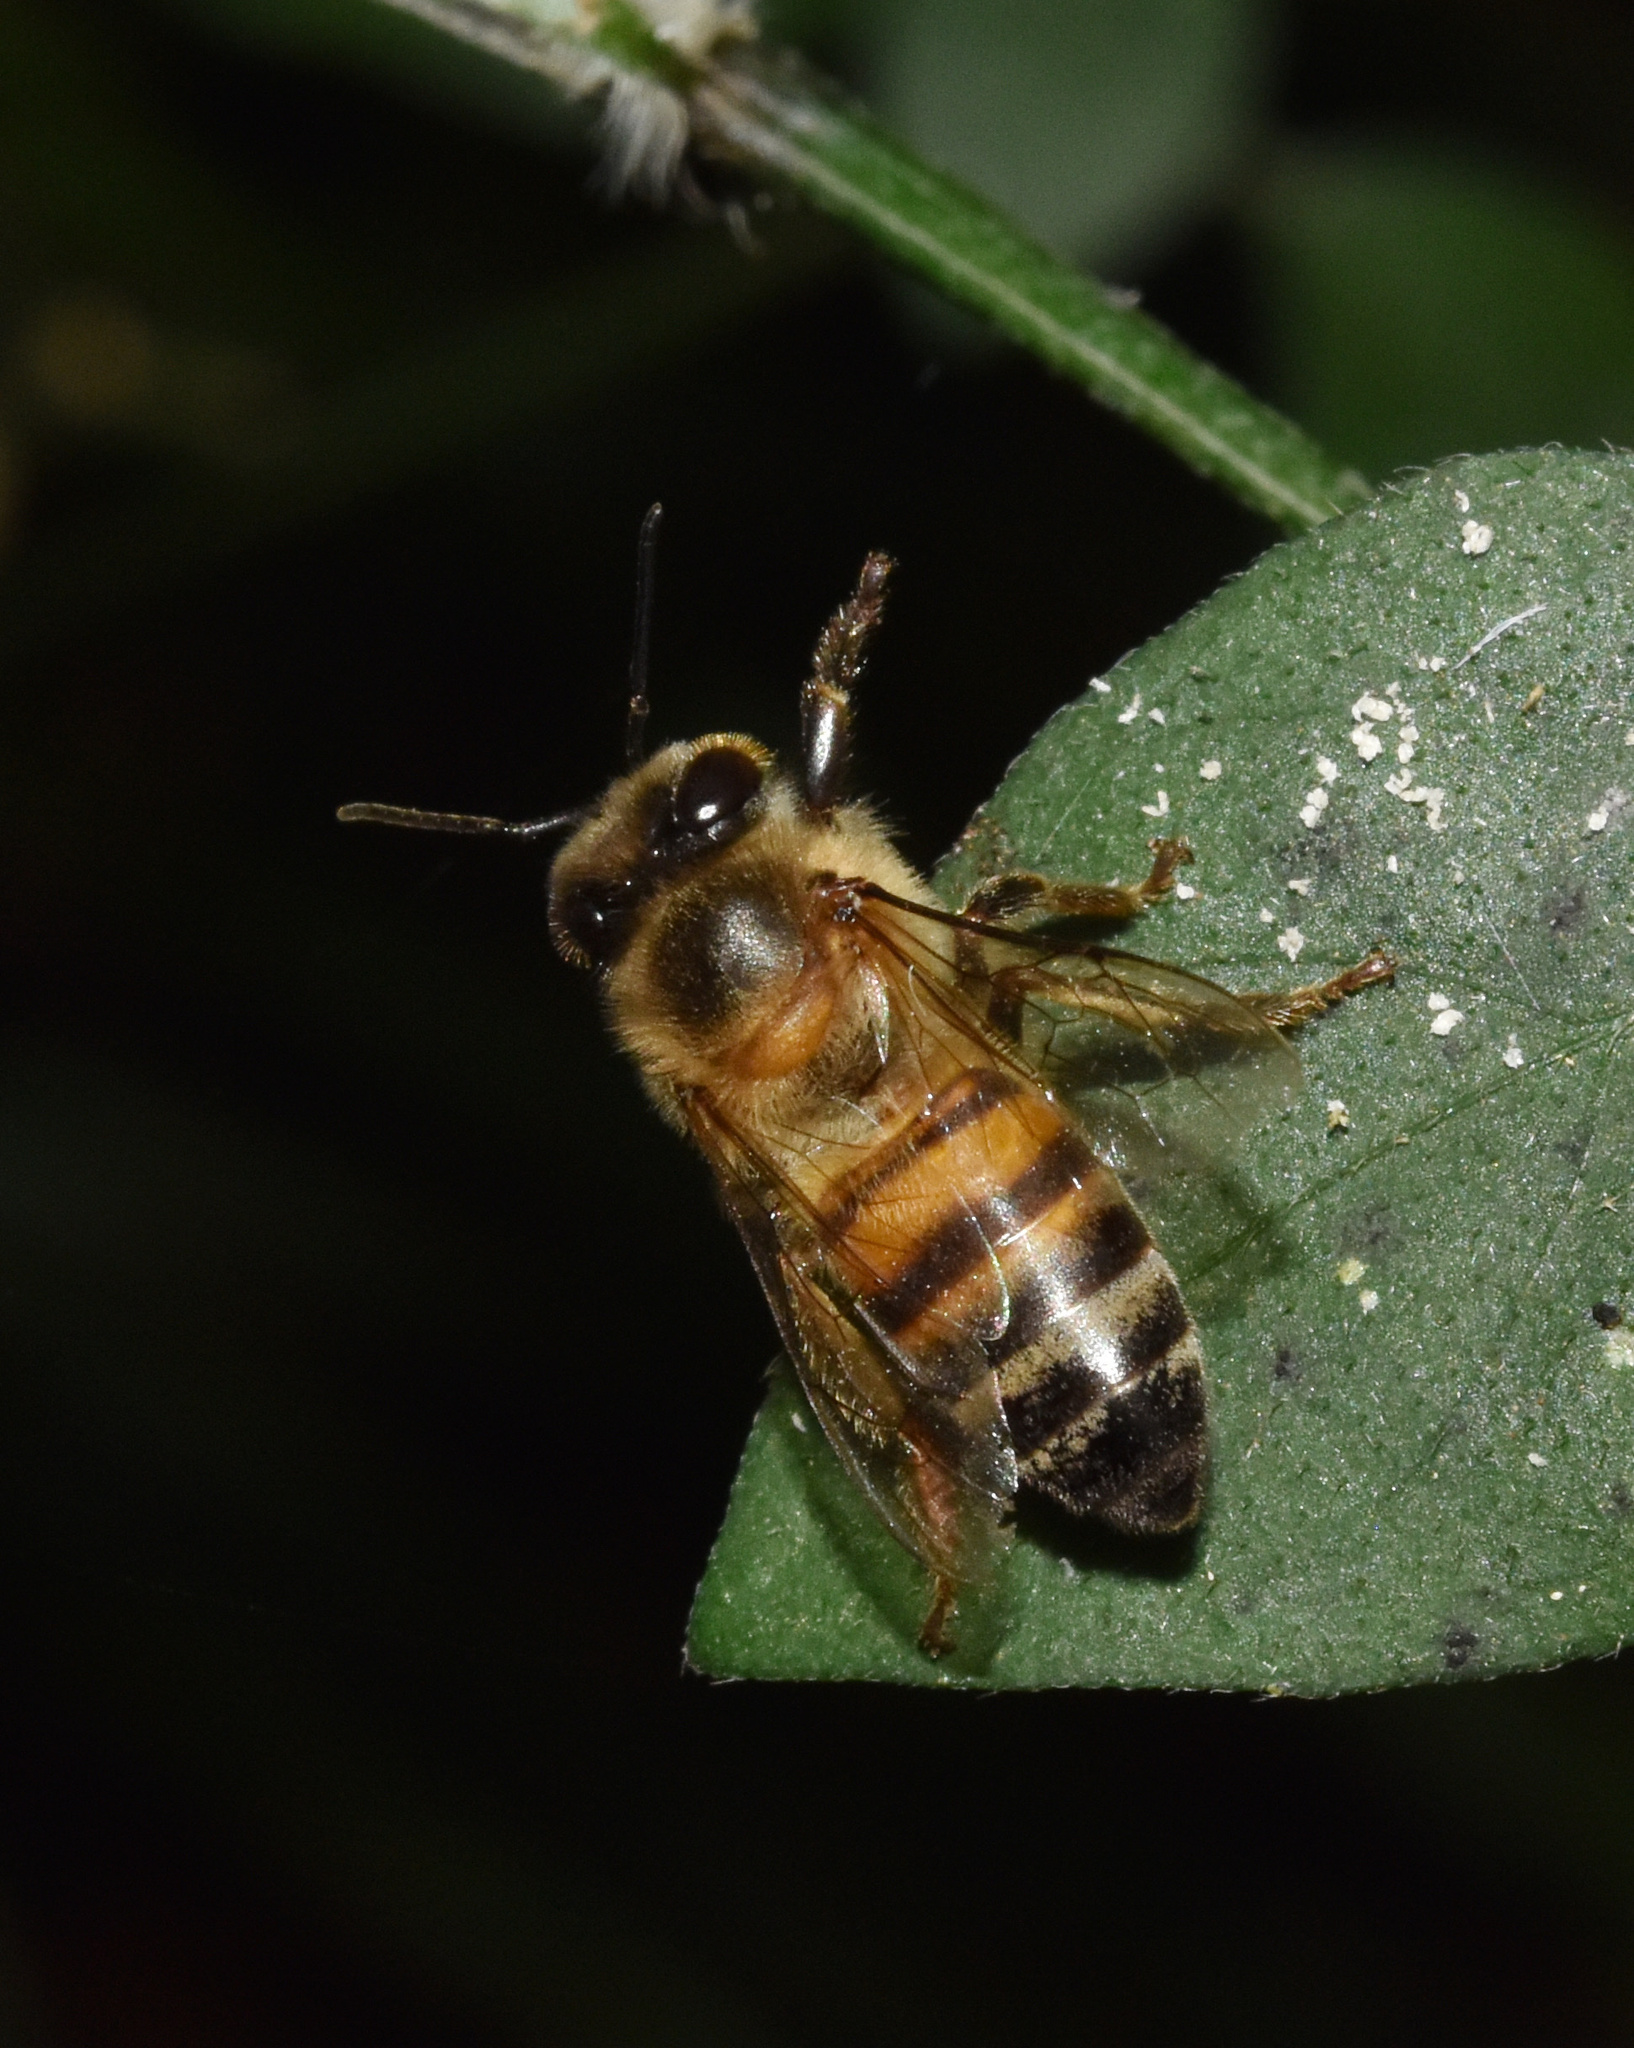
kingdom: Animalia
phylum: Arthropoda
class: Insecta
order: Hymenoptera
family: Apidae
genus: Apis
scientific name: Apis mellifera
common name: Honey bee
